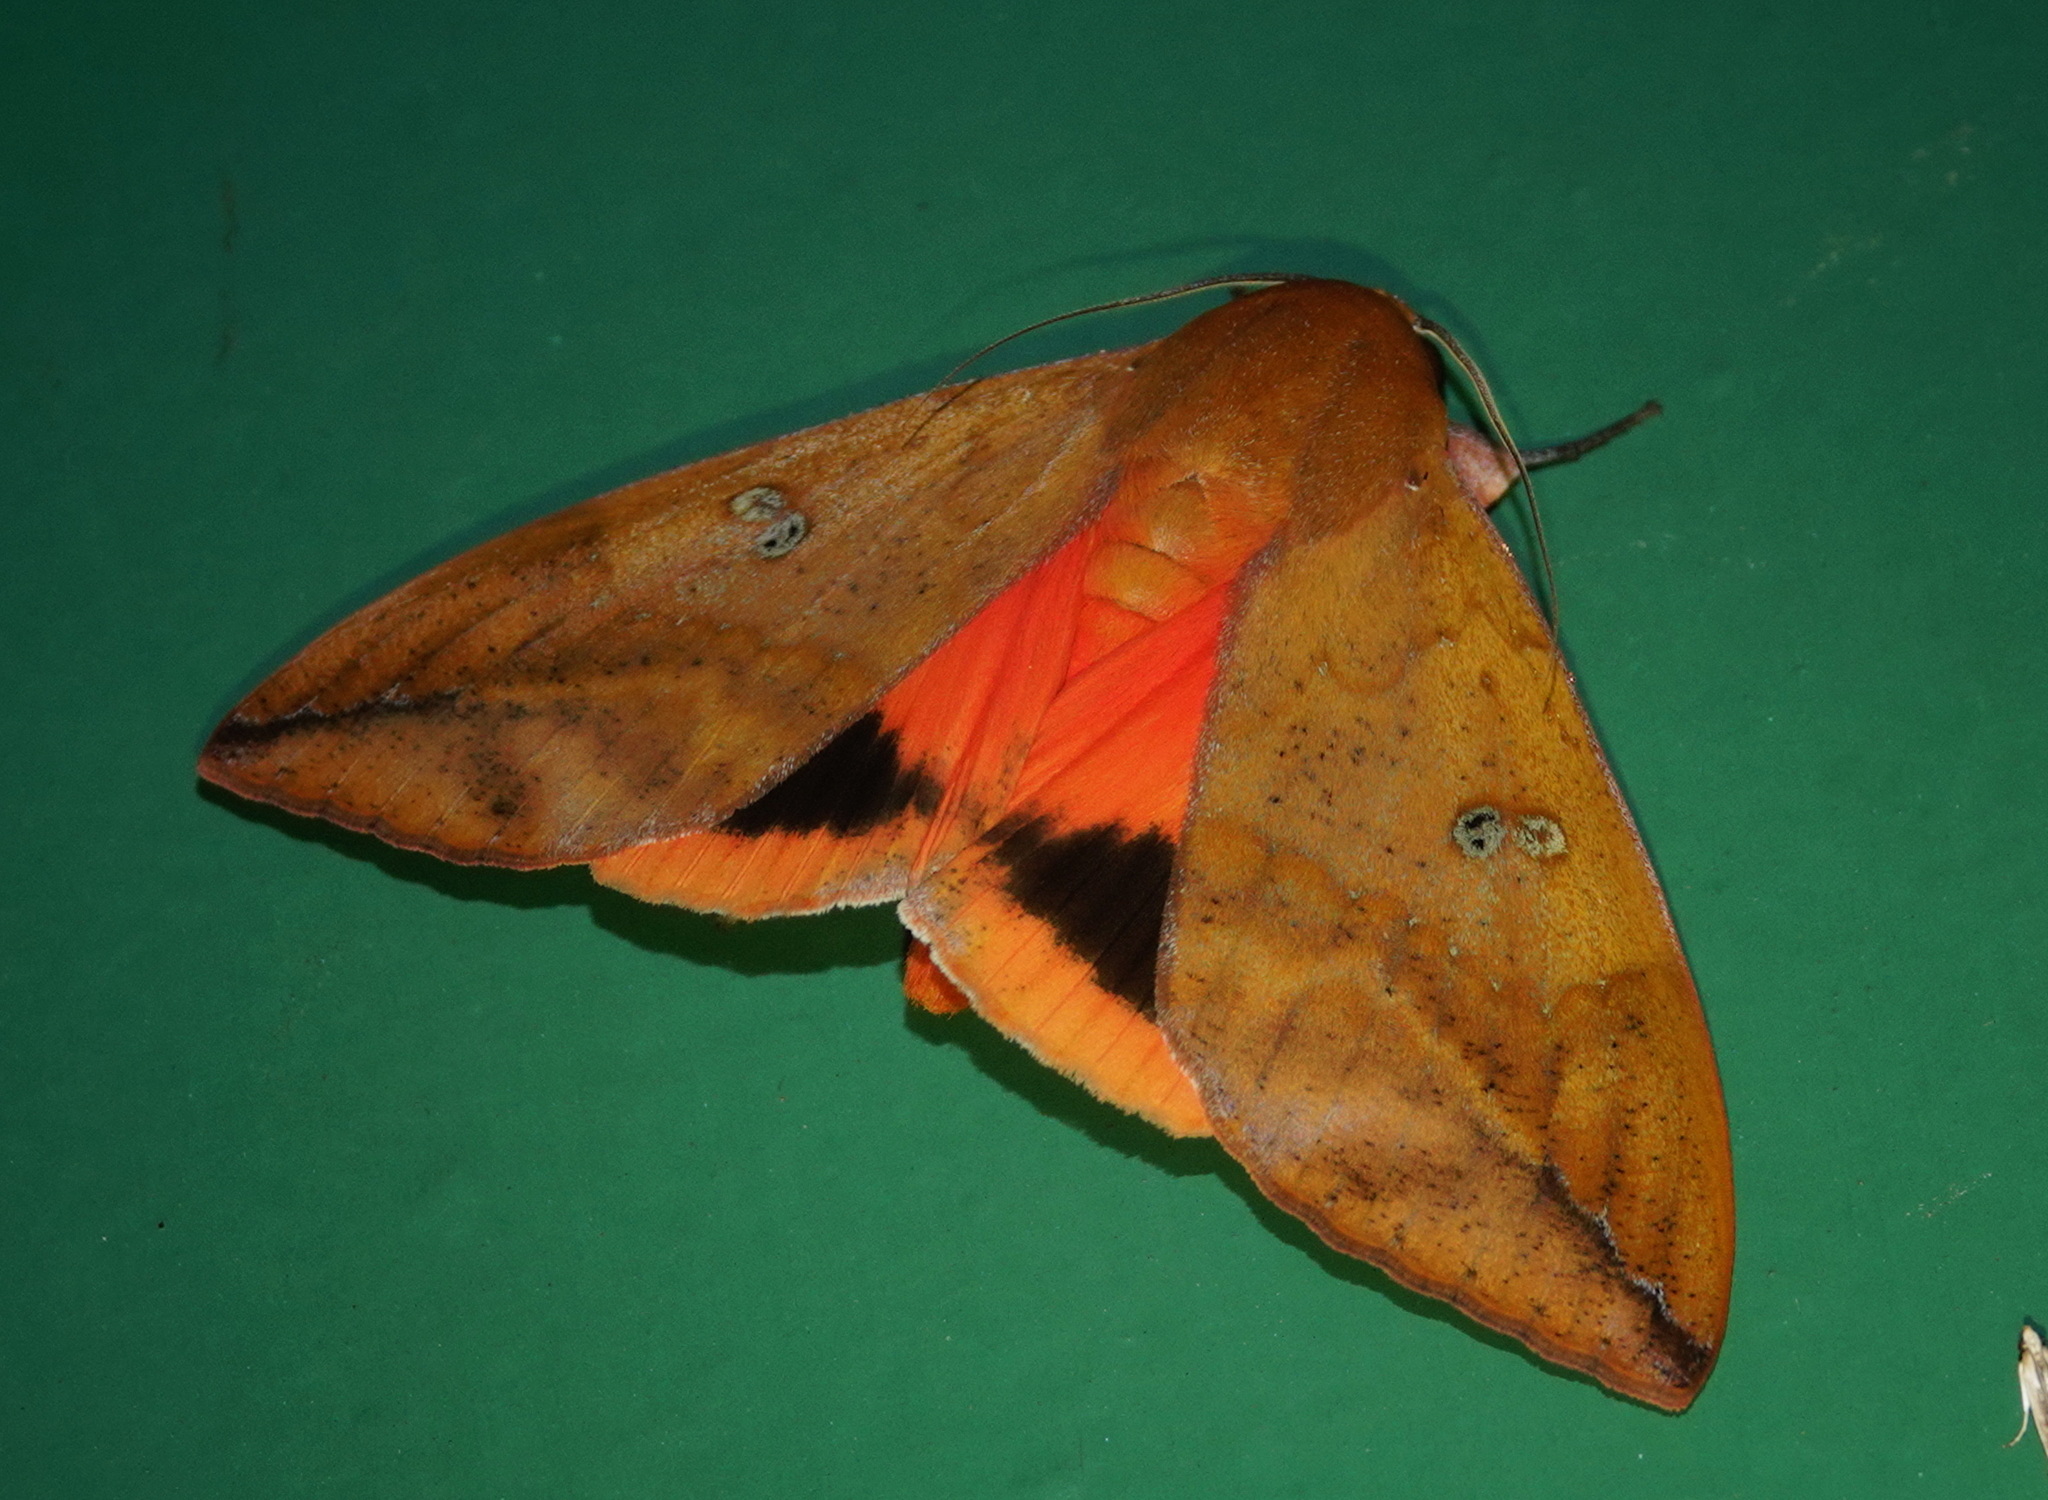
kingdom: Animalia
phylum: Arthropoda
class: Insecta
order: Lepidoptera
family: Erebidae
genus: Thyas
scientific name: Thyas honesta
